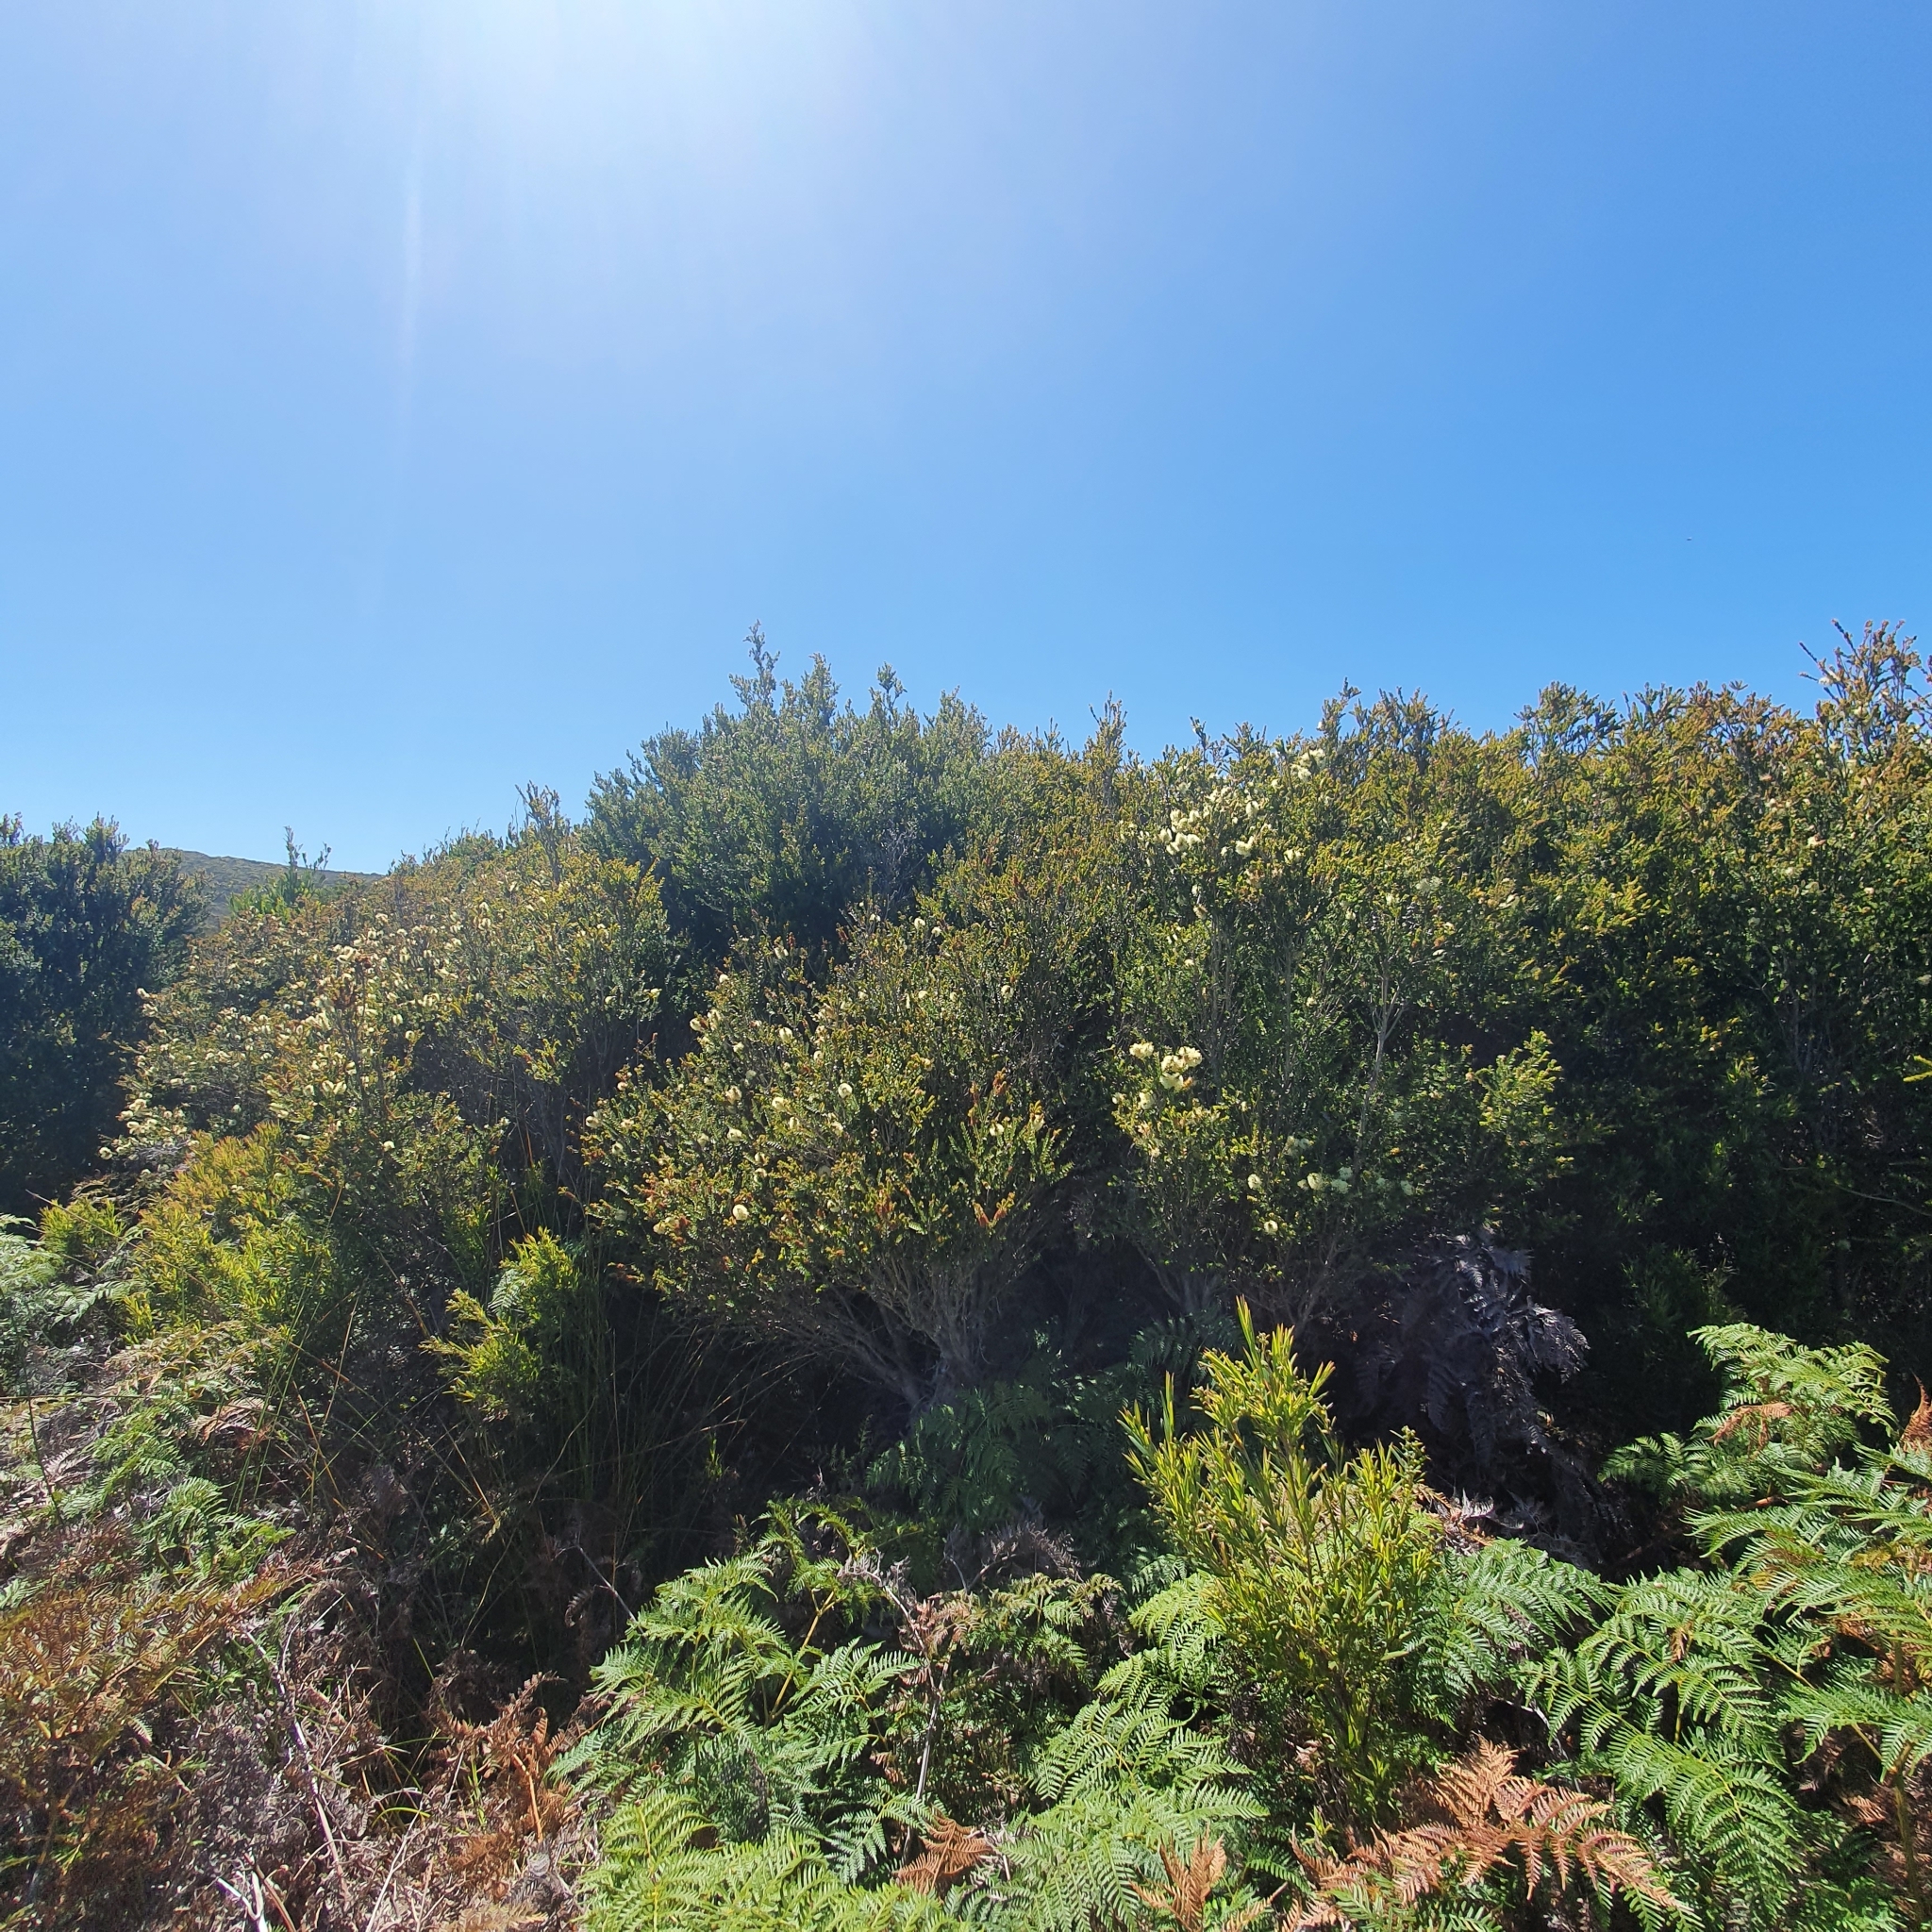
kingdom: Plantae
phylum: Tracheophyta
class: Magnoliopsida
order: Myrtales
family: Myrtaceae
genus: Melaleuca
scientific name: Melaleuca squarrosa
